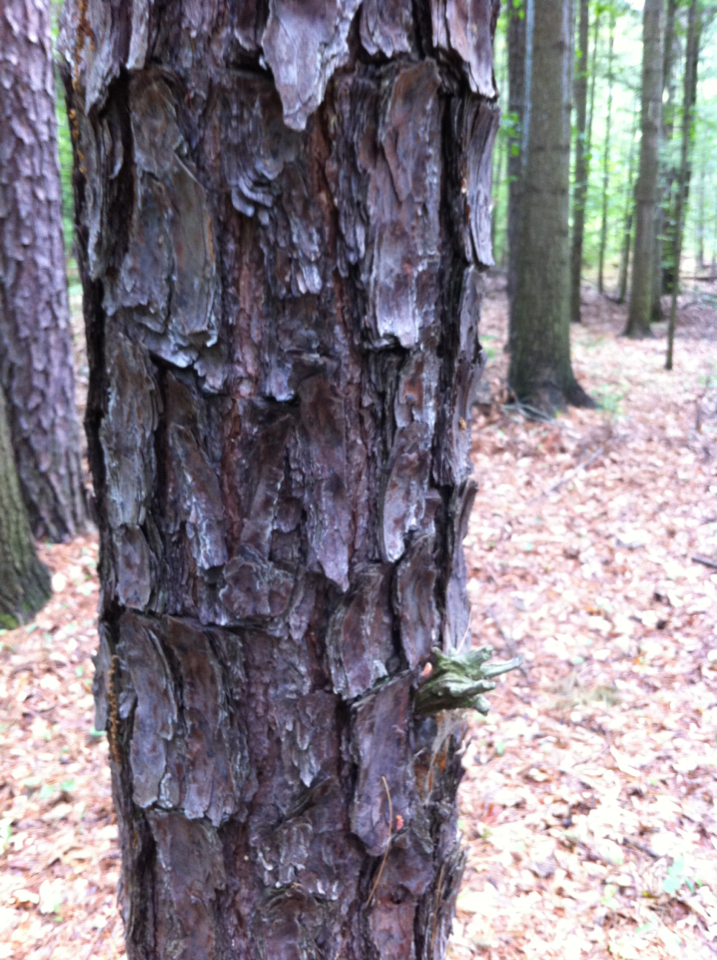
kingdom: Plantae
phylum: Tracheophyta
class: Pinopsida
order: Pinales
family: Pinaceae
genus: Pinus
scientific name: Pinus rigida
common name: Pitch pine
